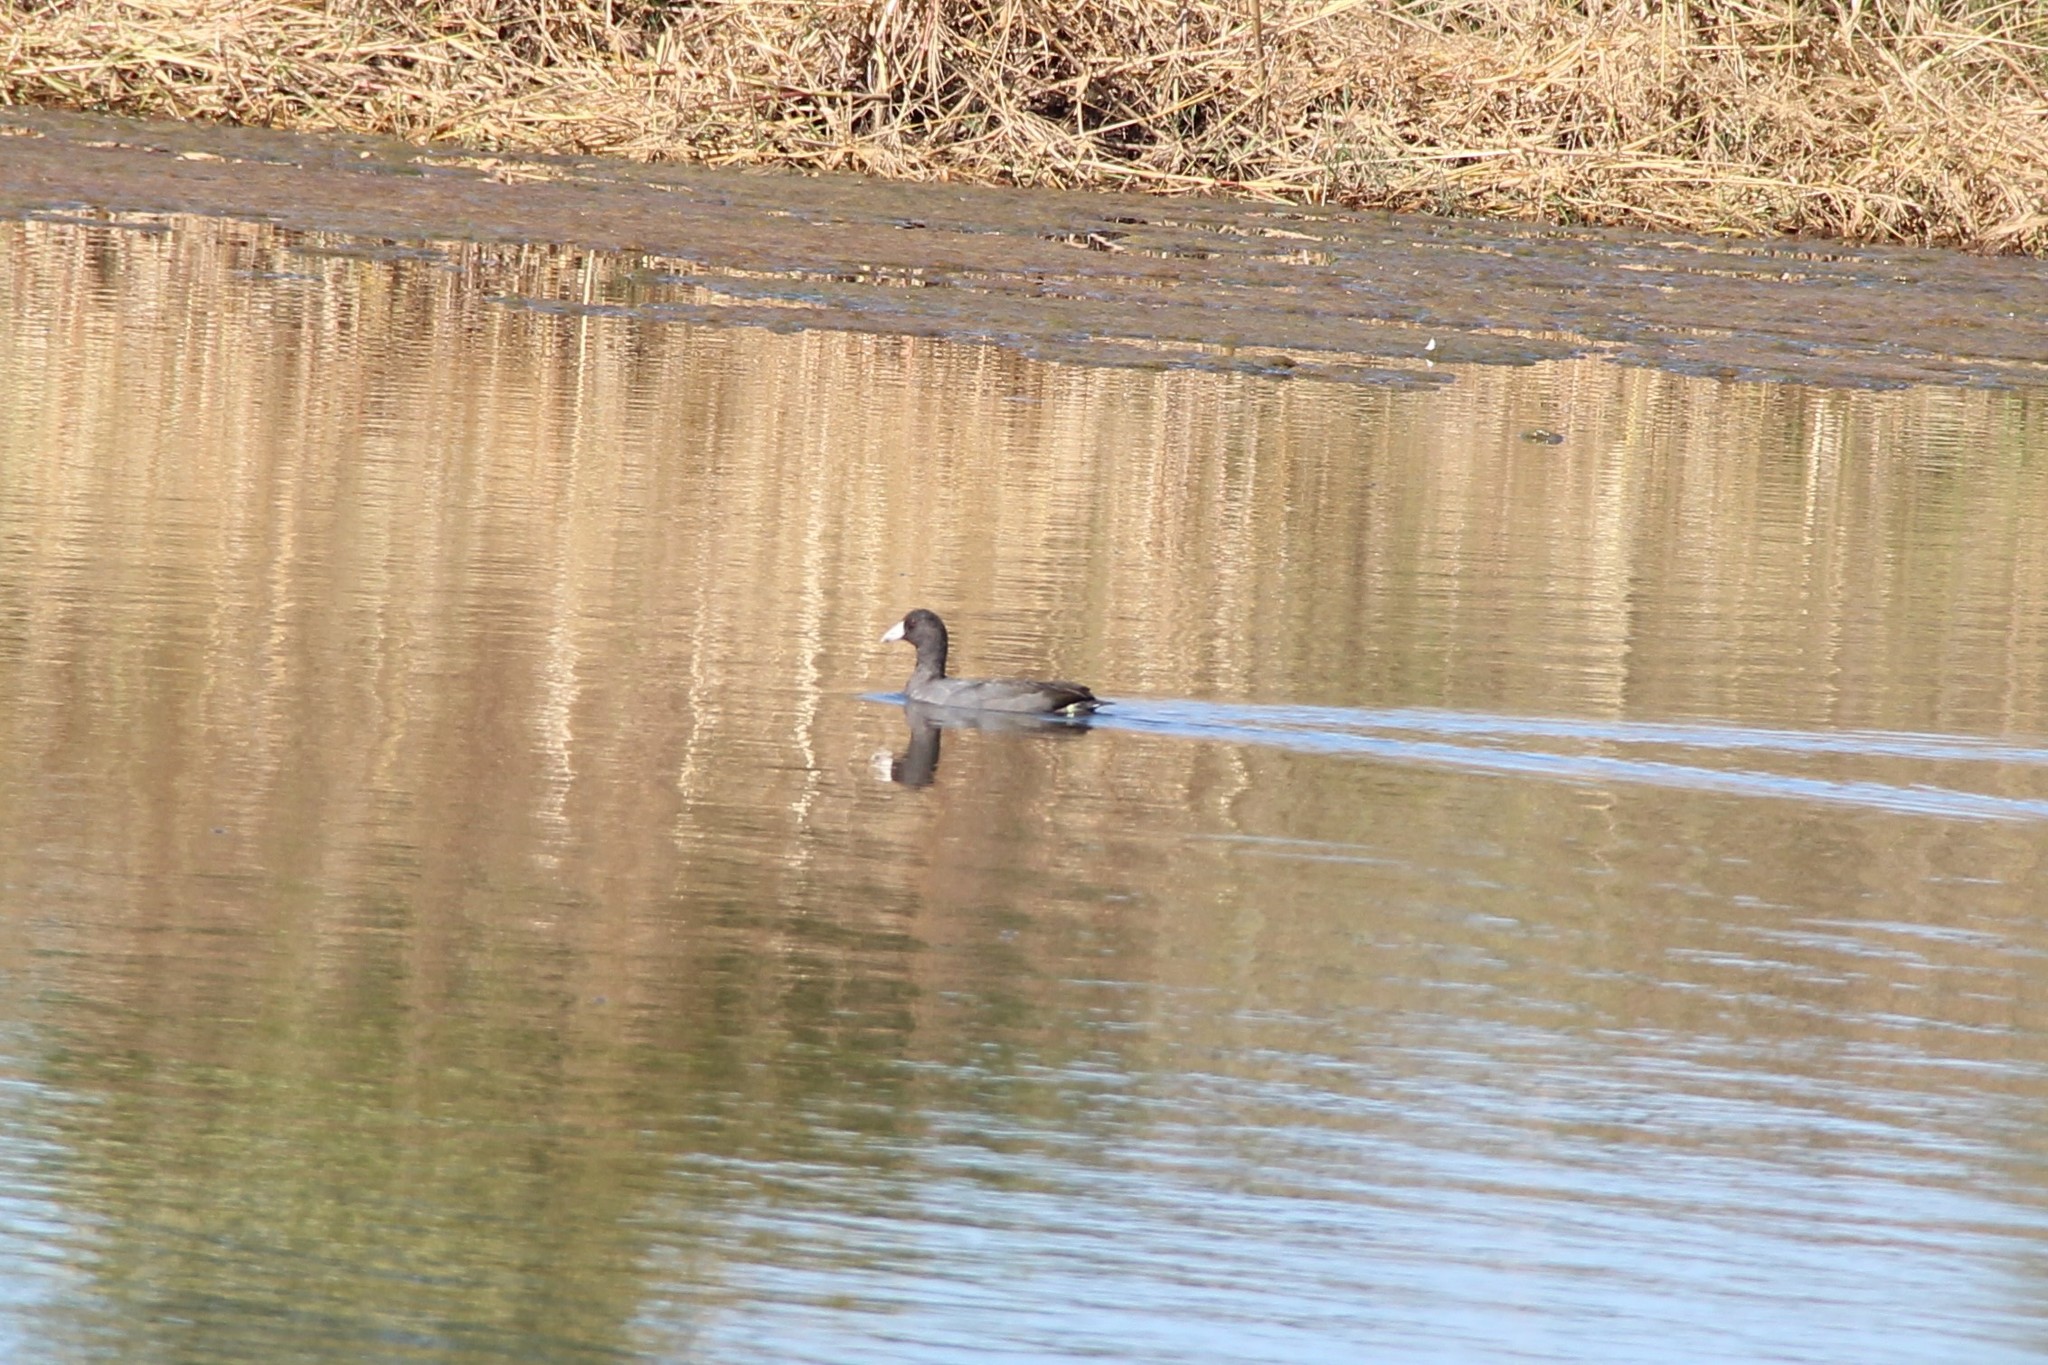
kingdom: Animalia
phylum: Chordata
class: Aves
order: Gruiformes
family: Rallidae
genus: Fulica
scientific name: Fulica americana
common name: American coot
